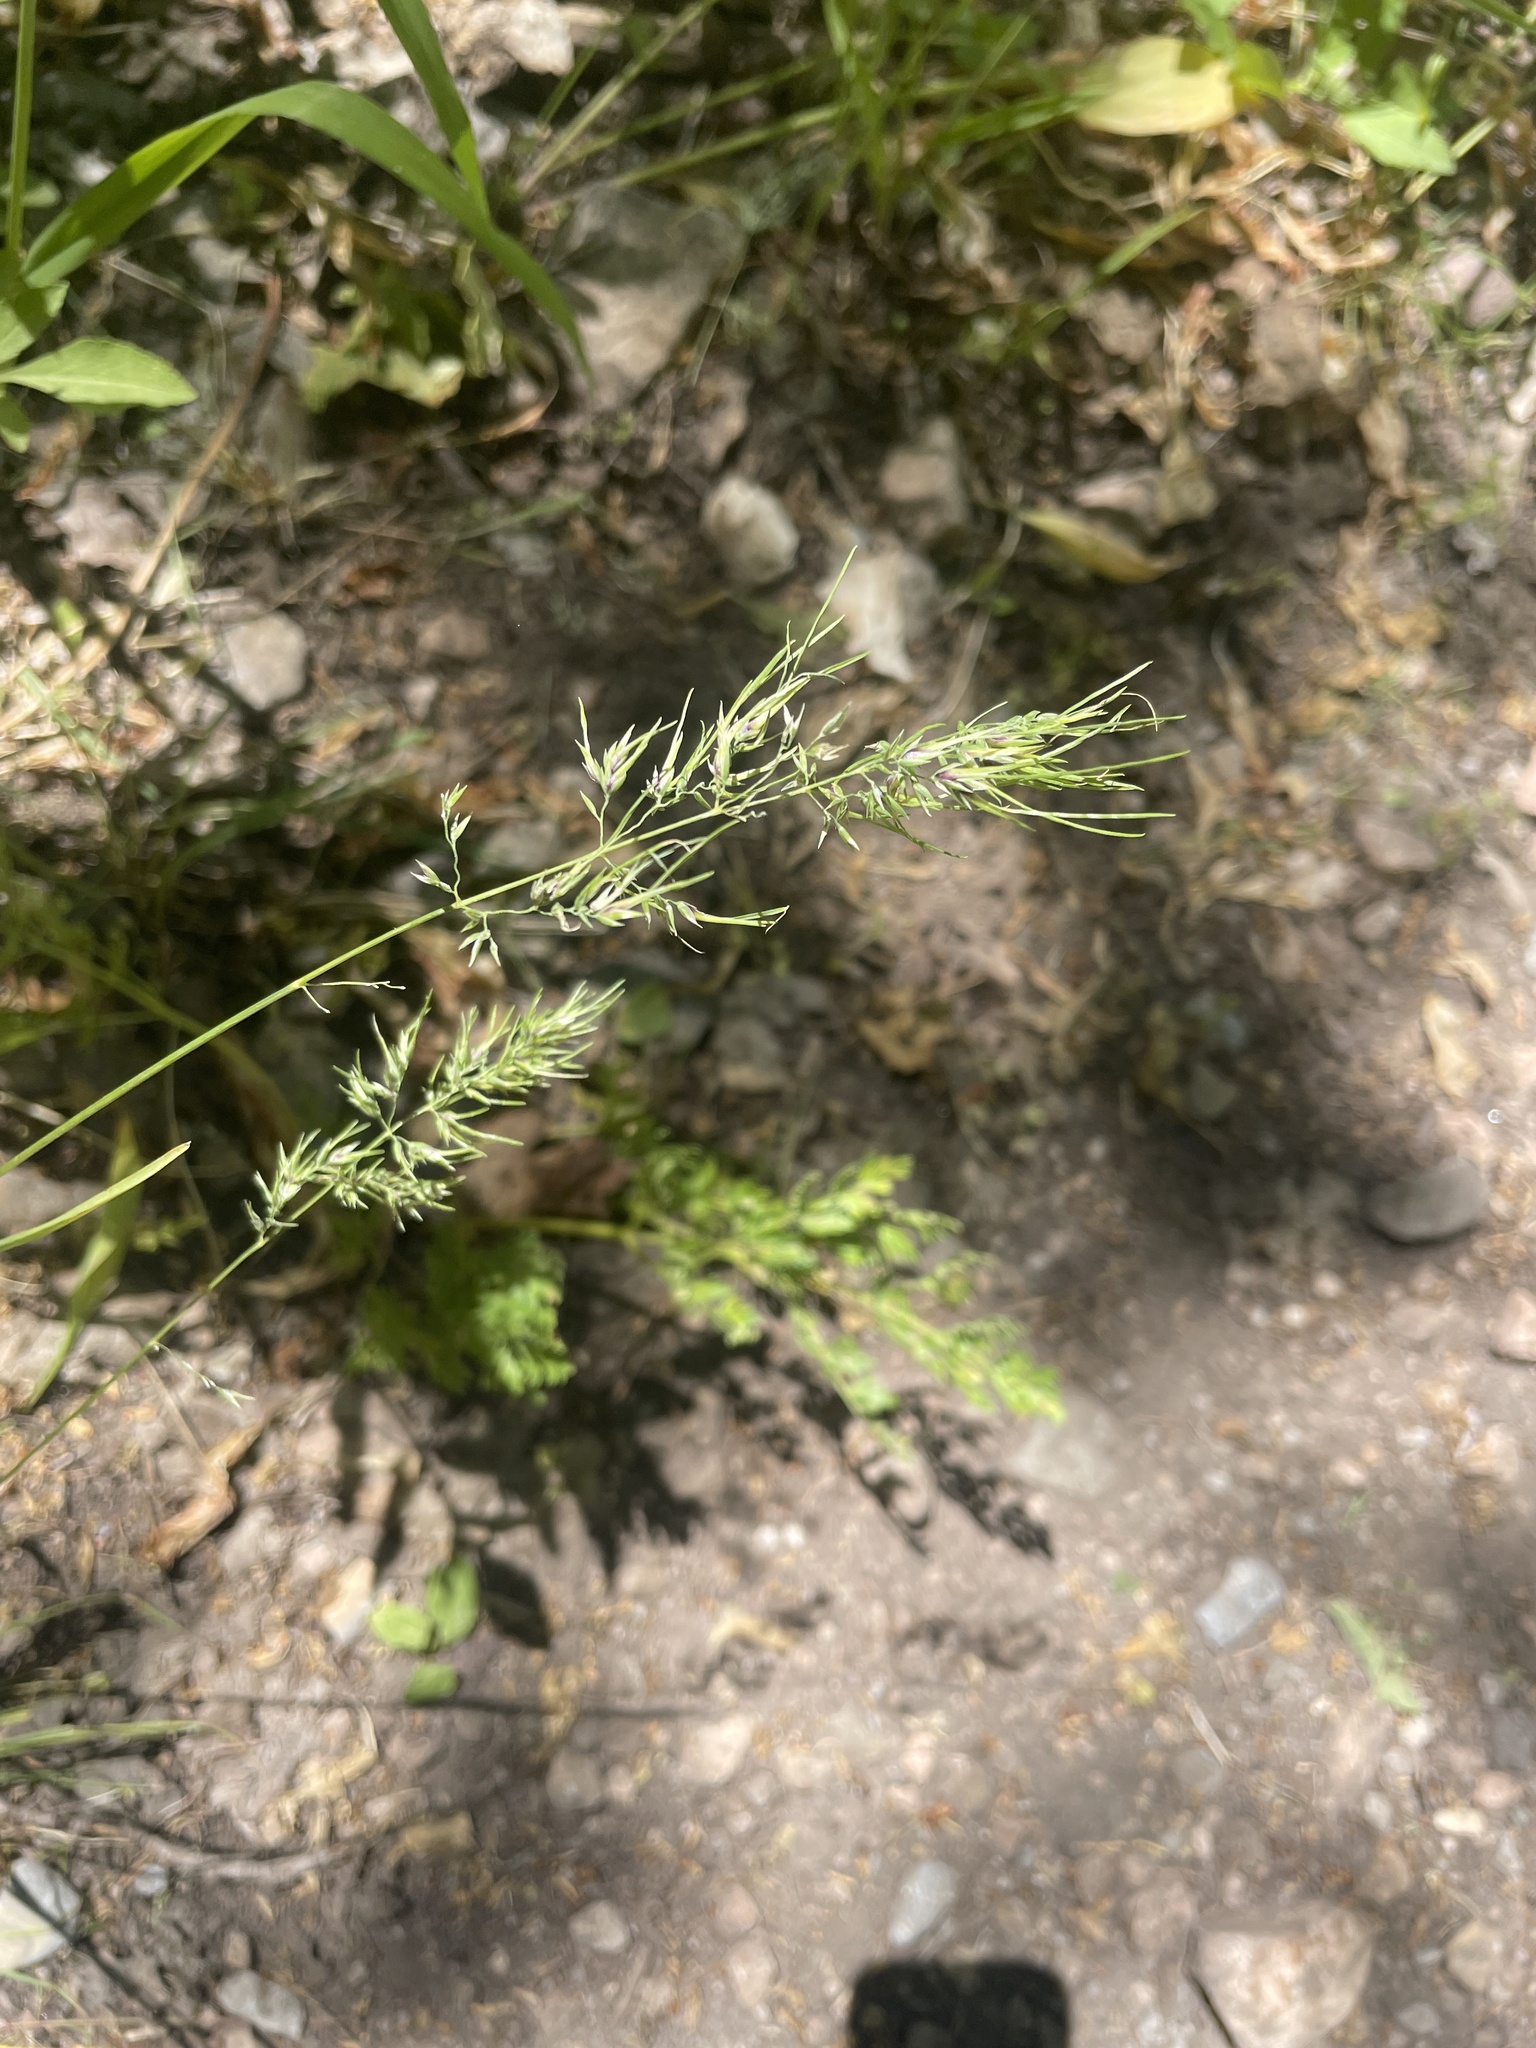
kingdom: Plantae
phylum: Tracheophyta
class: Liliopsida
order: Poales
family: Poaceae
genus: Poa
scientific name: Poa bulbosa
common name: Bulbous bluegrass
